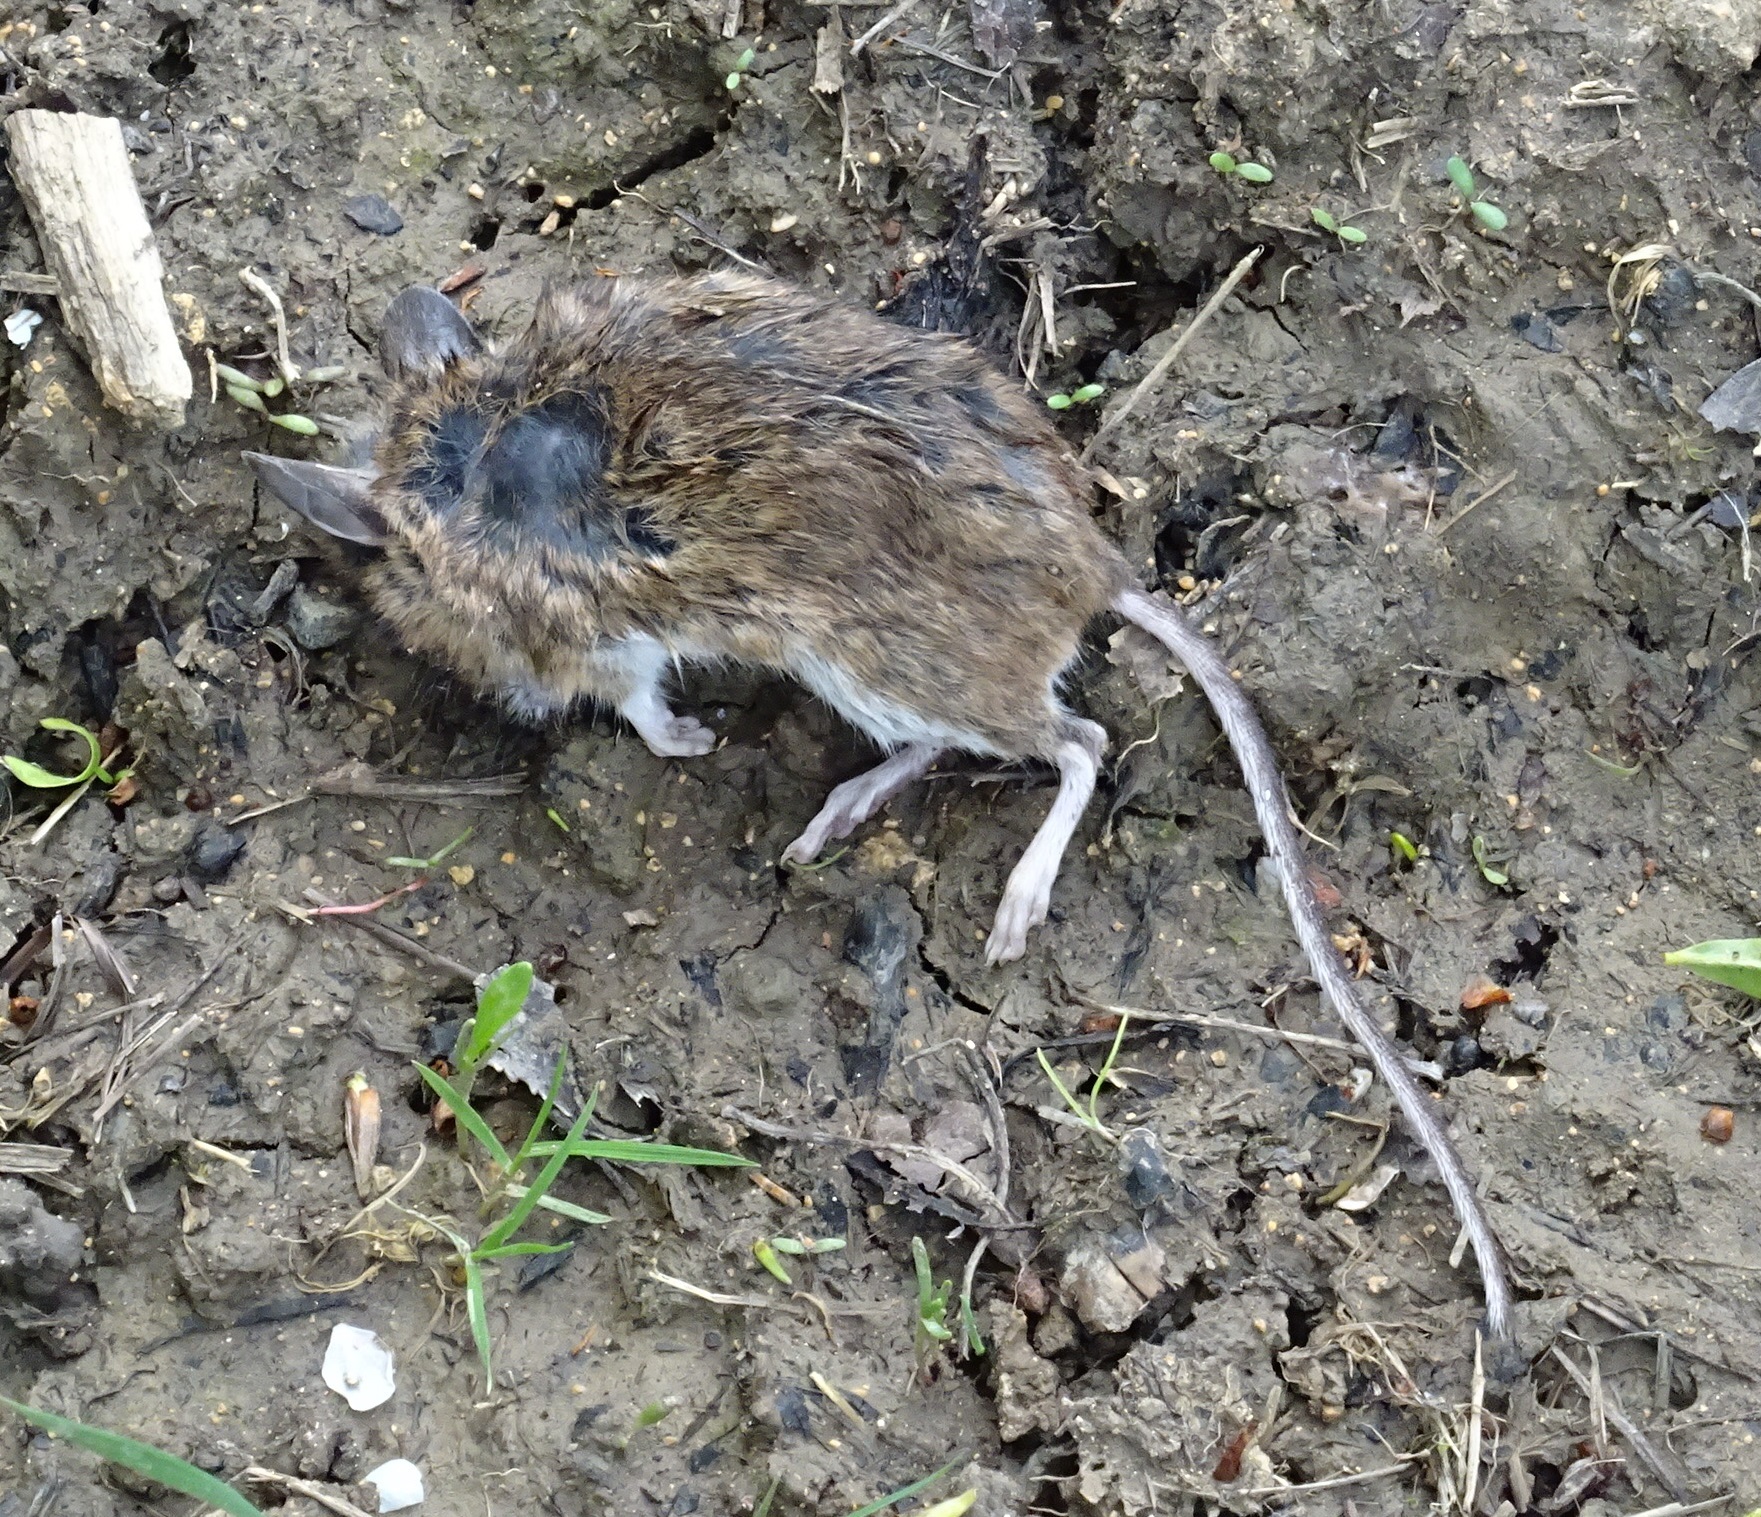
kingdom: Animalia
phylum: Chordata
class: Mammalia
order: Rodentia
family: Muridae
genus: Apodemus
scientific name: Apodemus sylvaticus
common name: Wood mouse
